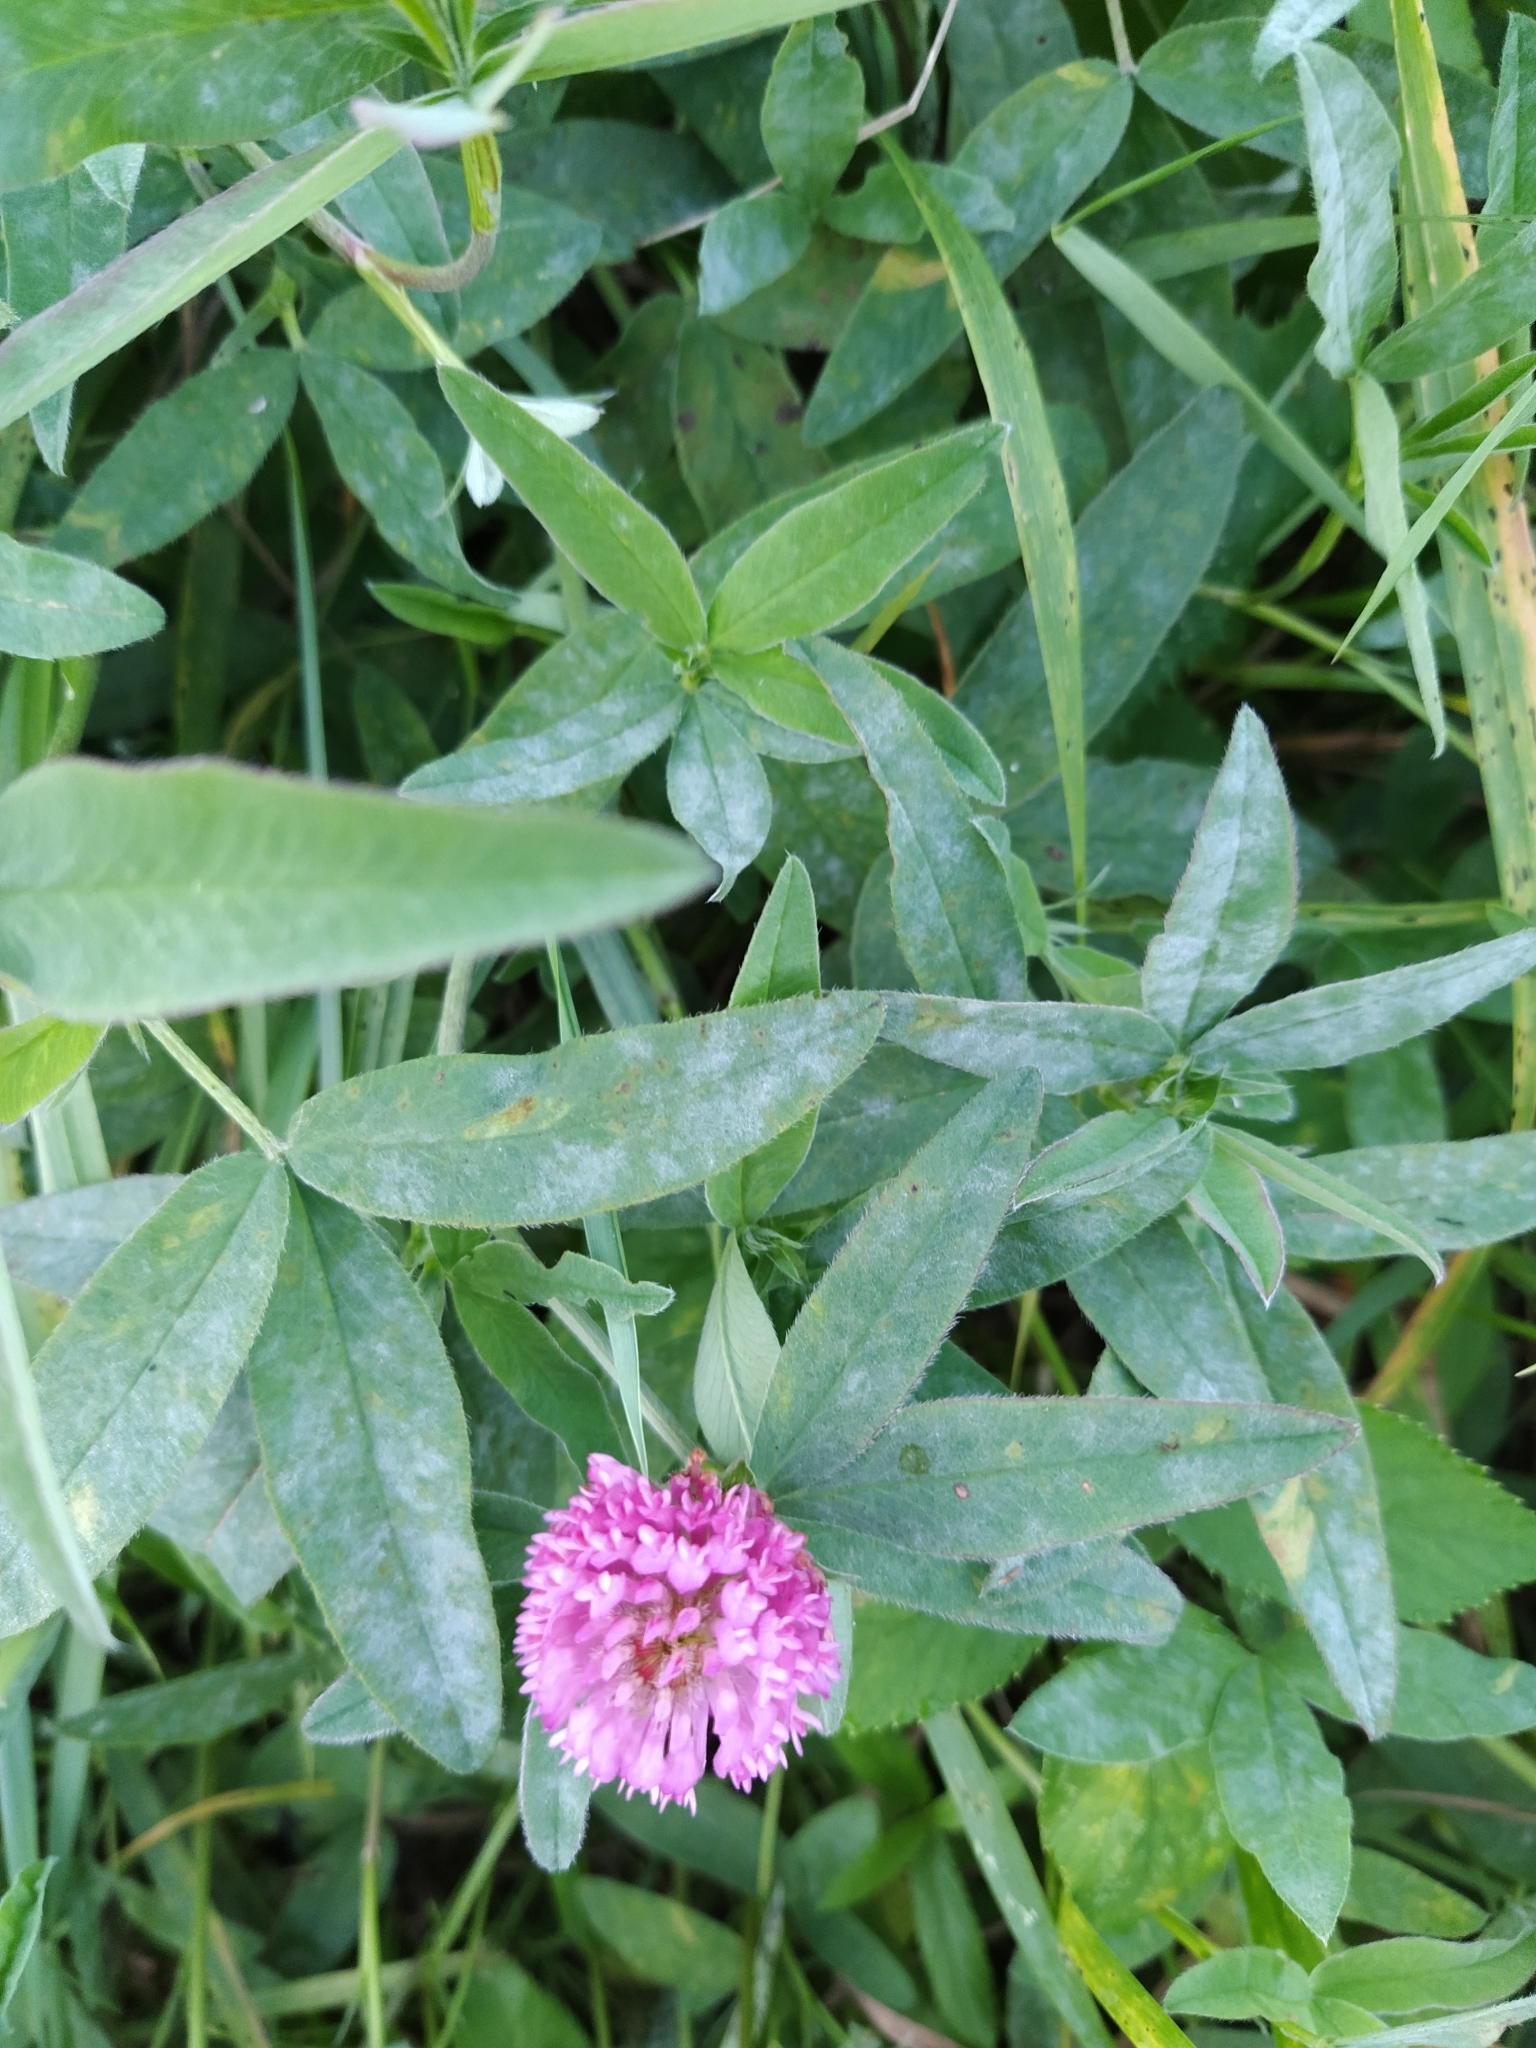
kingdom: Plantae
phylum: Tracheophyta
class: Magnoliopsida
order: Fabales
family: Fabaceae
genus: Trifolium
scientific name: Trifolium medium
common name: Zigzag clover
